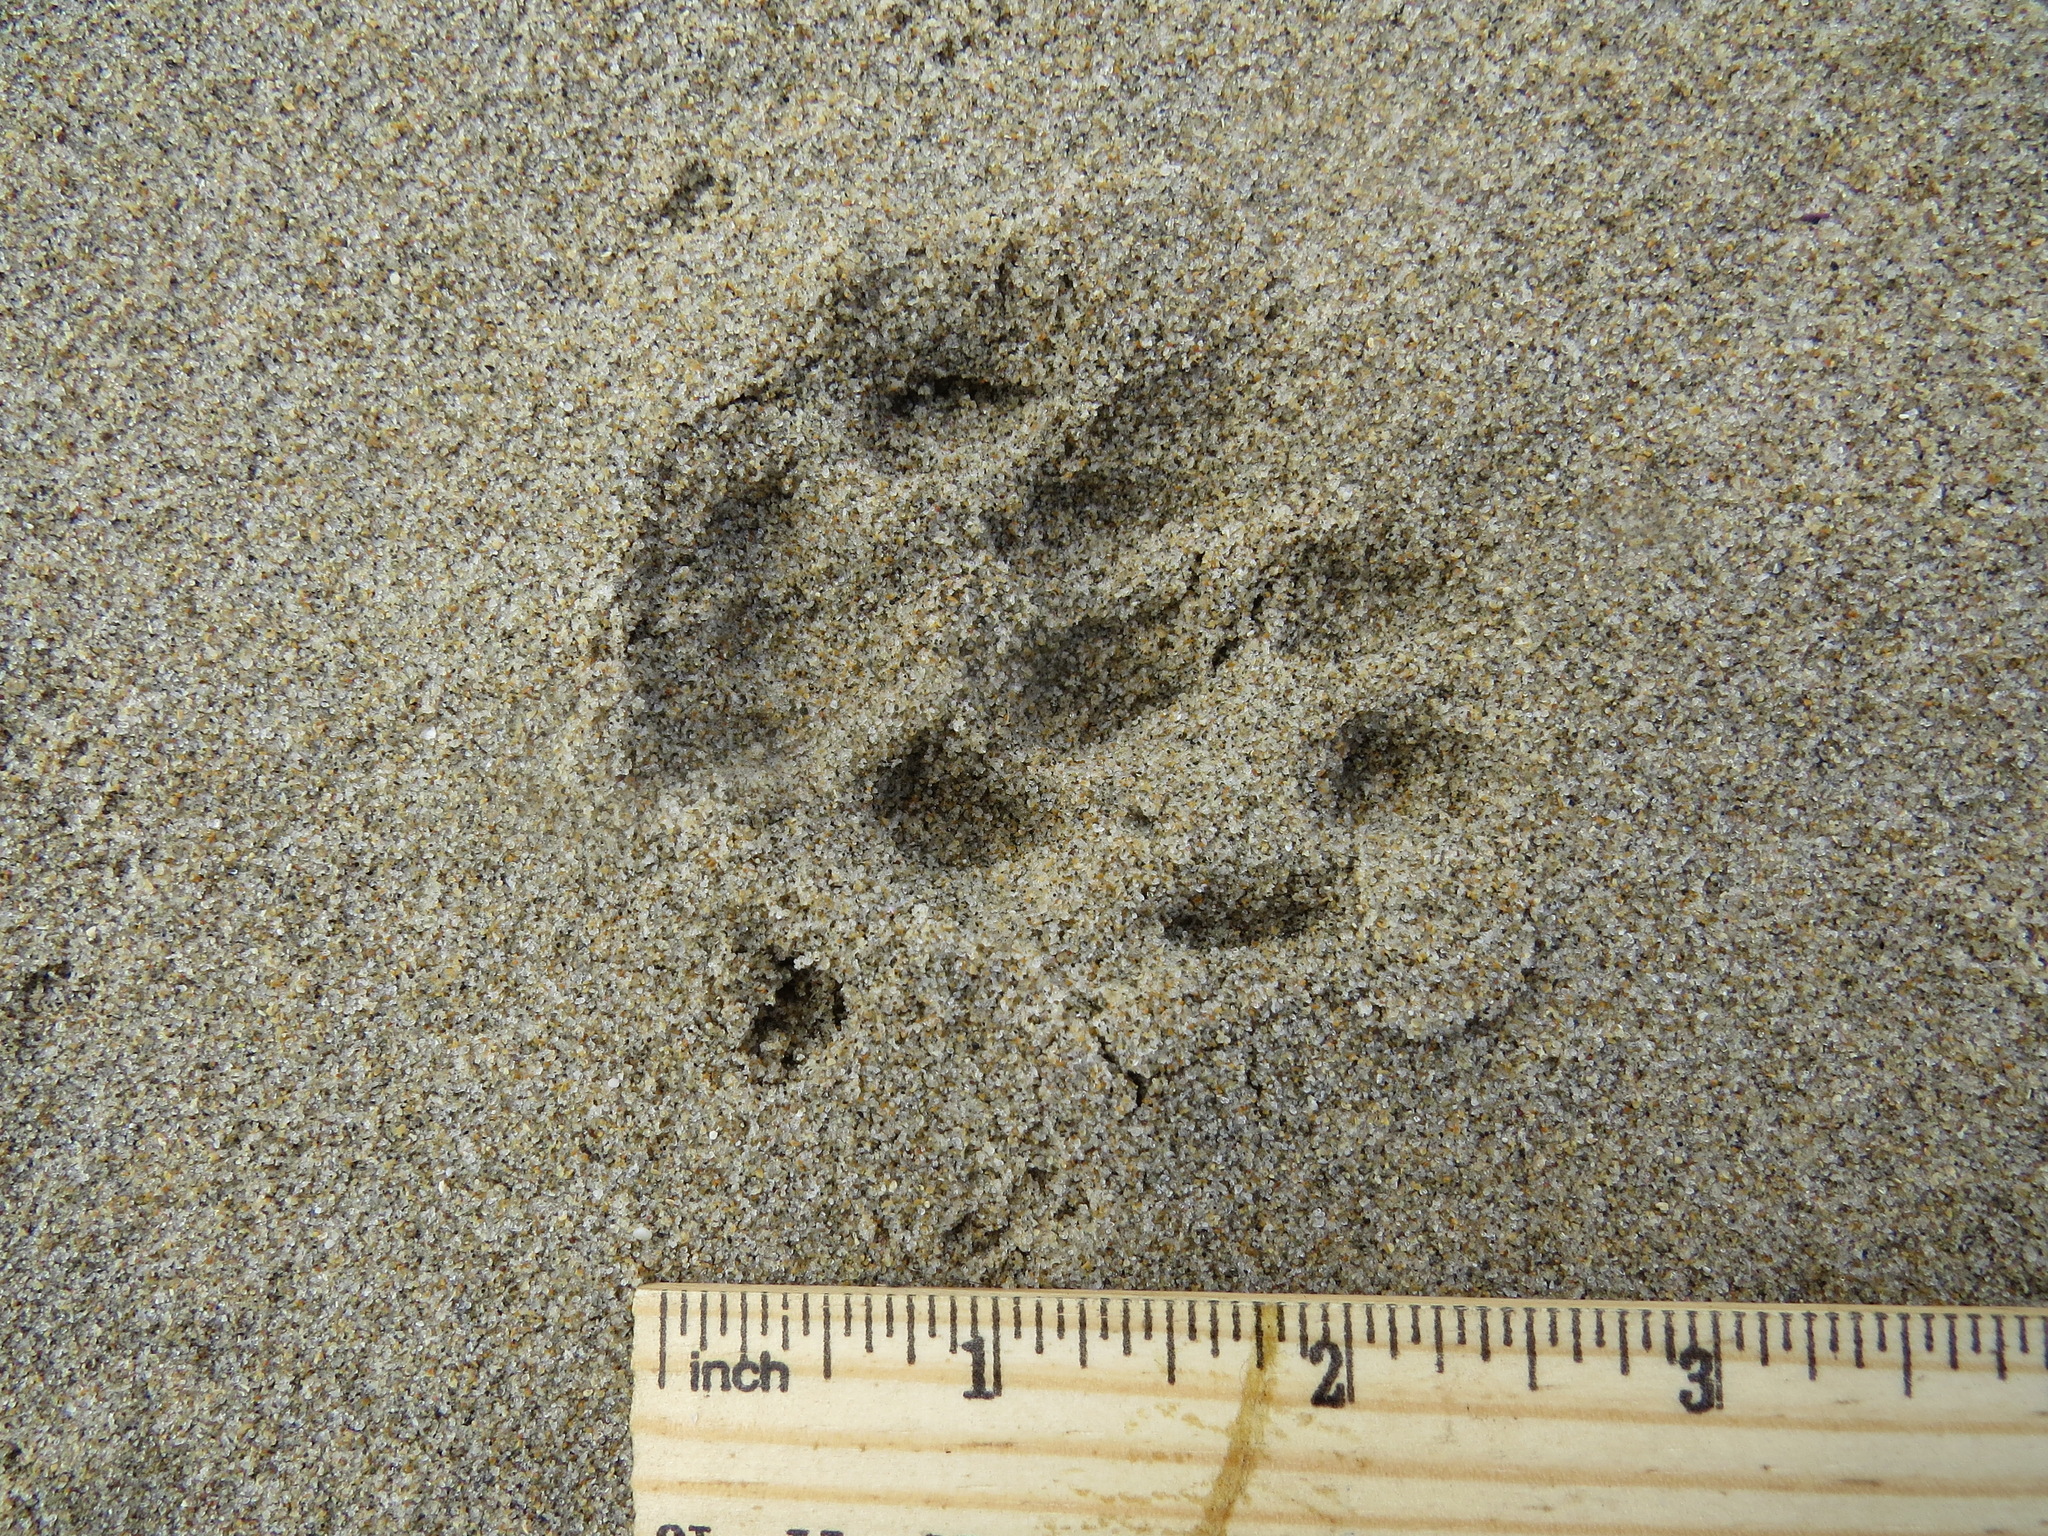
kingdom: Animalia
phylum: Chordata
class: Mammalia
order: Carnivora
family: Felidae
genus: Lynx
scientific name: Lynx rufus
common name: Bobcat
